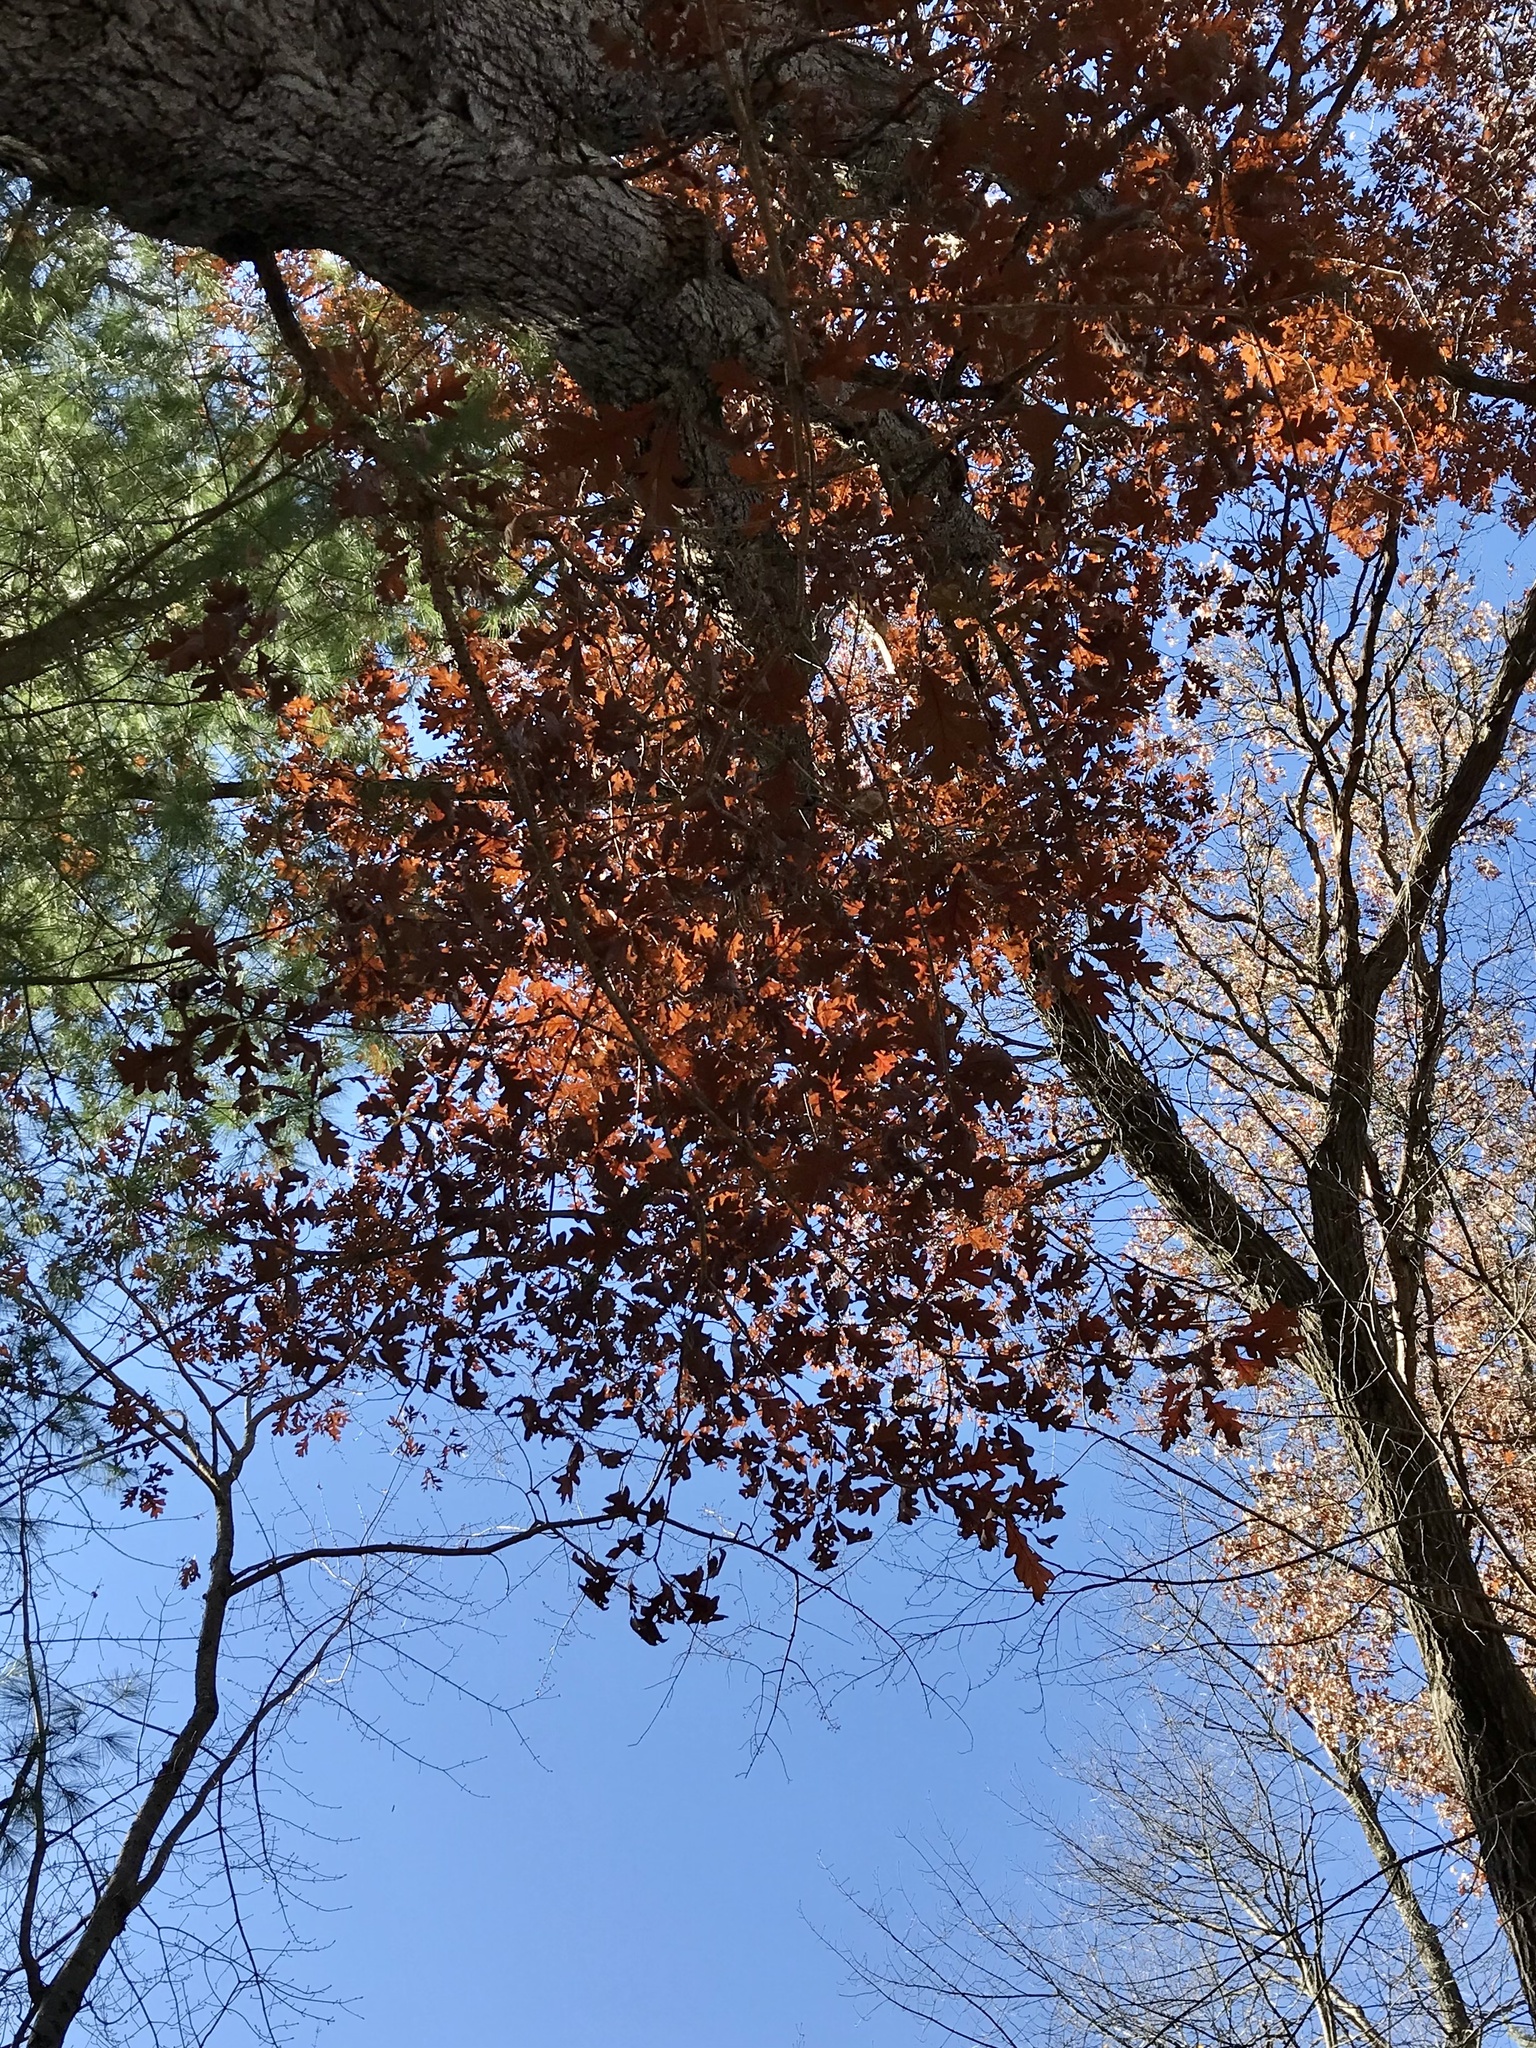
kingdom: Plantae
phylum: Tracheophyta
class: Magnoliopsida
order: Fagales
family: Fagaceae
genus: Quercus
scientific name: Quercus alba
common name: White oak
